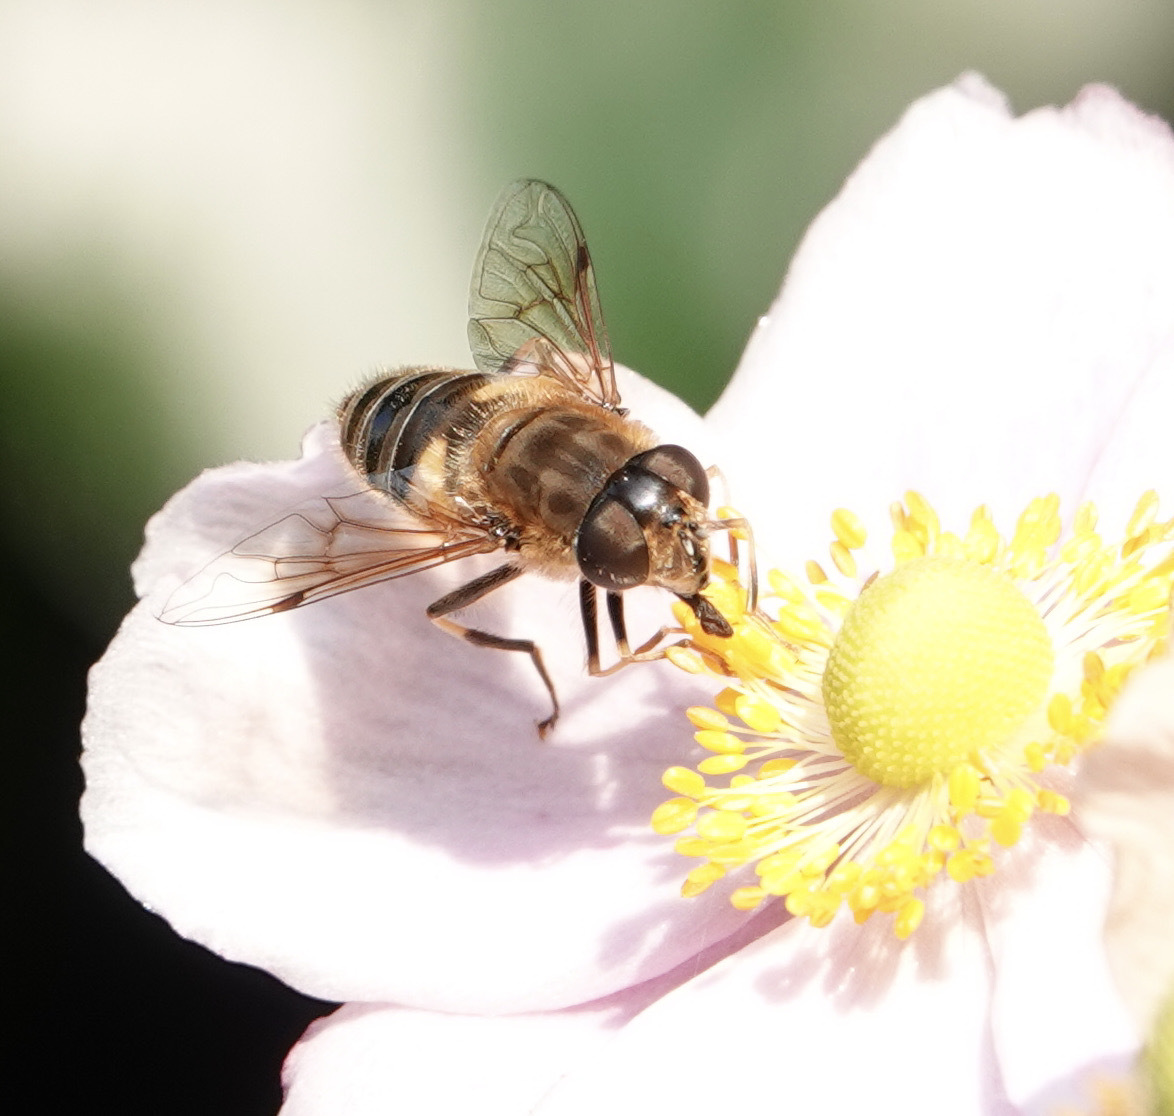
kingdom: Animalia
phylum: Arthropoda
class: Insecta
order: Diptera
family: Syrphidae
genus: Eristalis
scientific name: Eristalis pertinax
